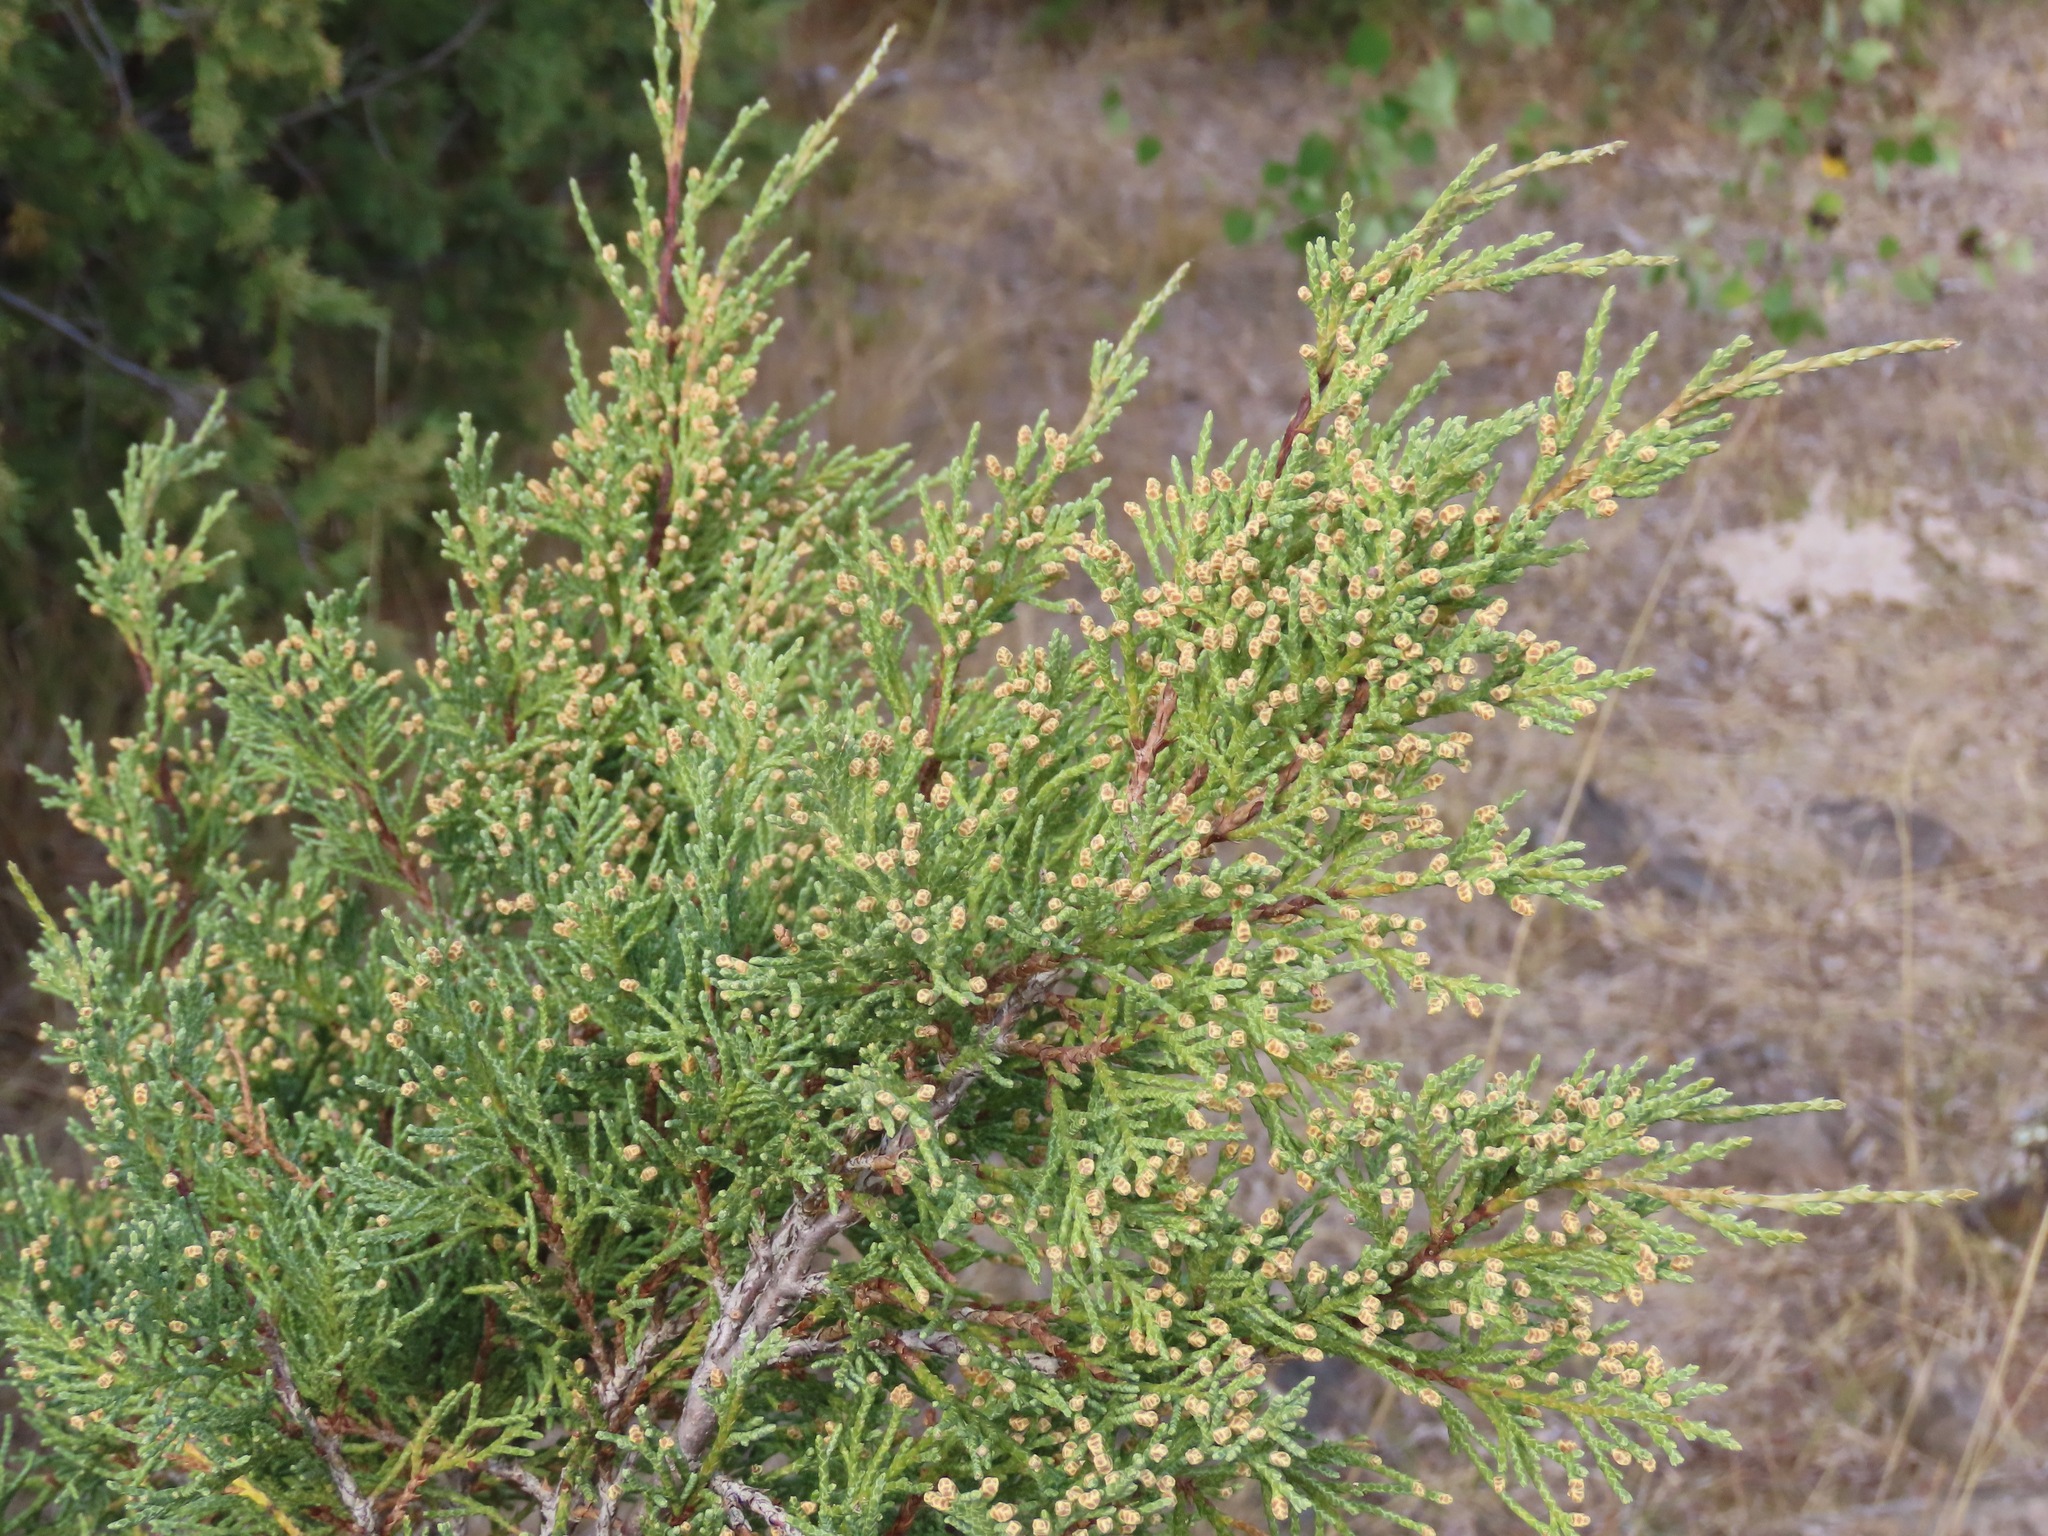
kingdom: Plantae
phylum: Tracheophyta
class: Pinopsida
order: Pinales
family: Cupressaceae
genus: Juniperus
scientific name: Juniperus scopulorum
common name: Rocky mountain juniper
